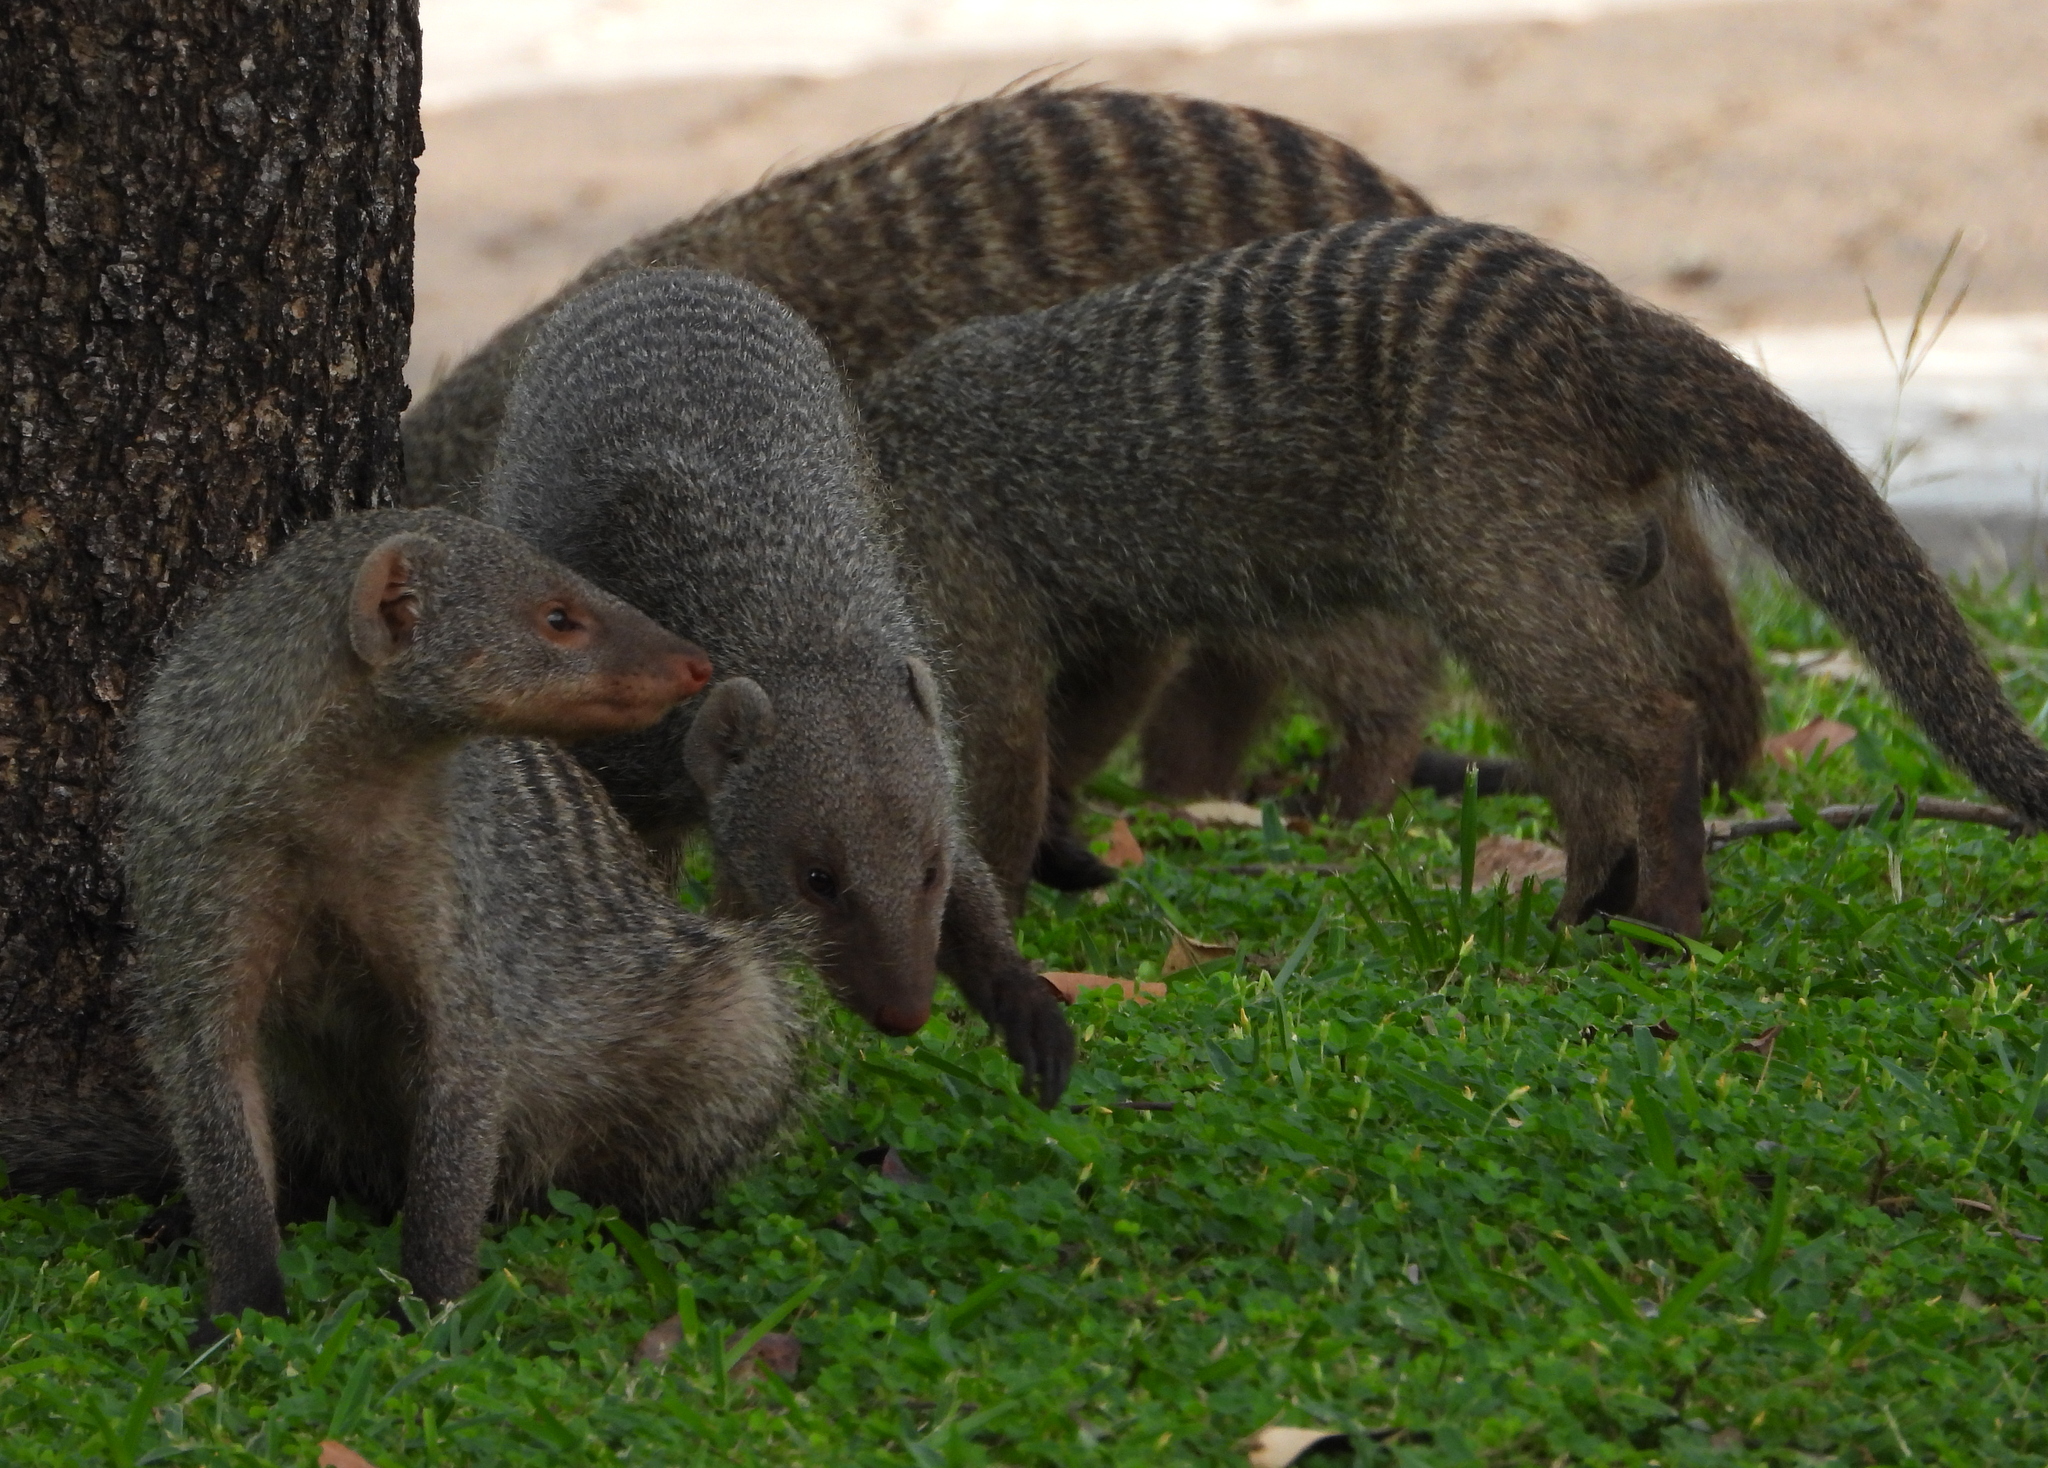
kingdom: Animalia
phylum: Chordata
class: Mammalia
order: Carnivora
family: Herpestidae
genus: Mungos
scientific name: Mungos mungo
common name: Banded mongoose
